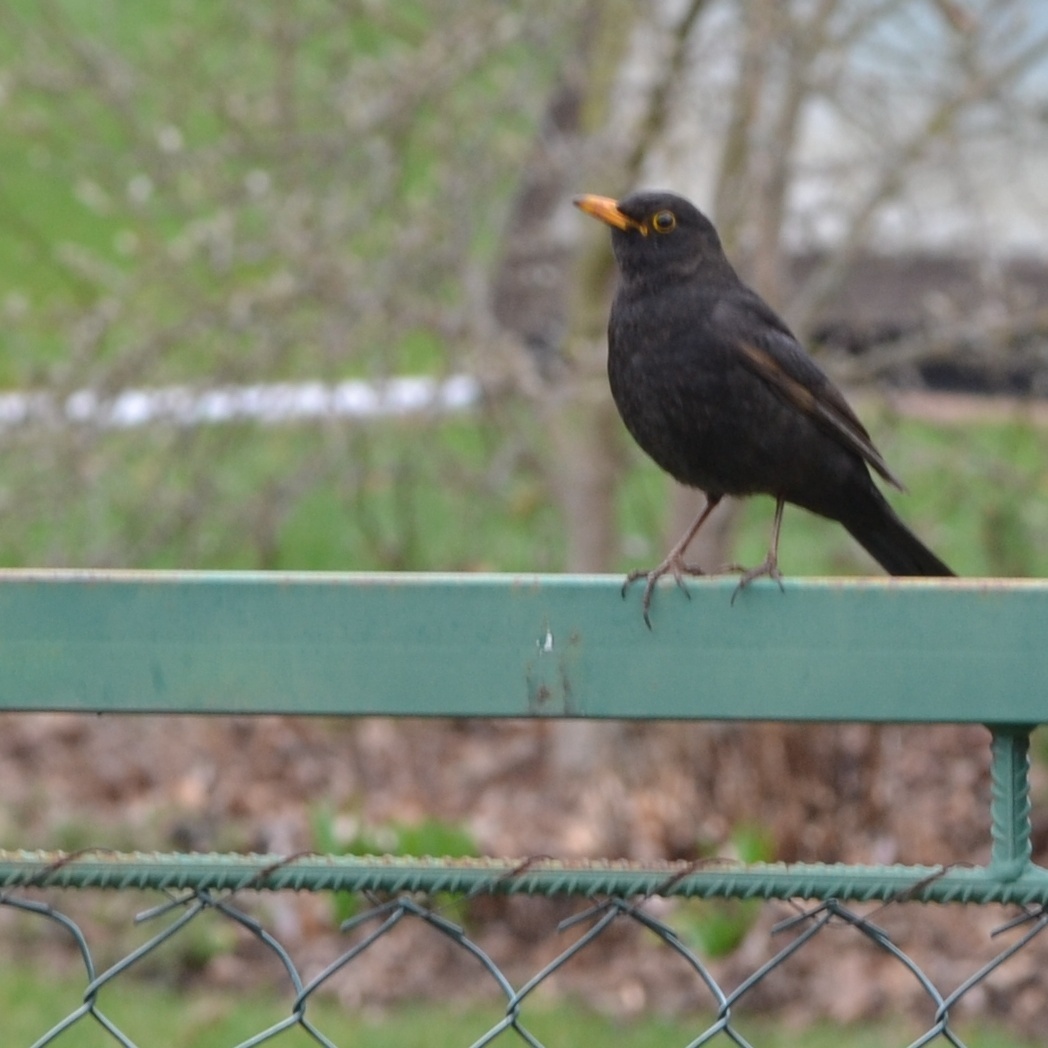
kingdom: Animalia
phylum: Chordata
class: Aves
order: Passeriformes
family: Turdidae
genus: Turdus
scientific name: Turdus merula
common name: Common blackbird
